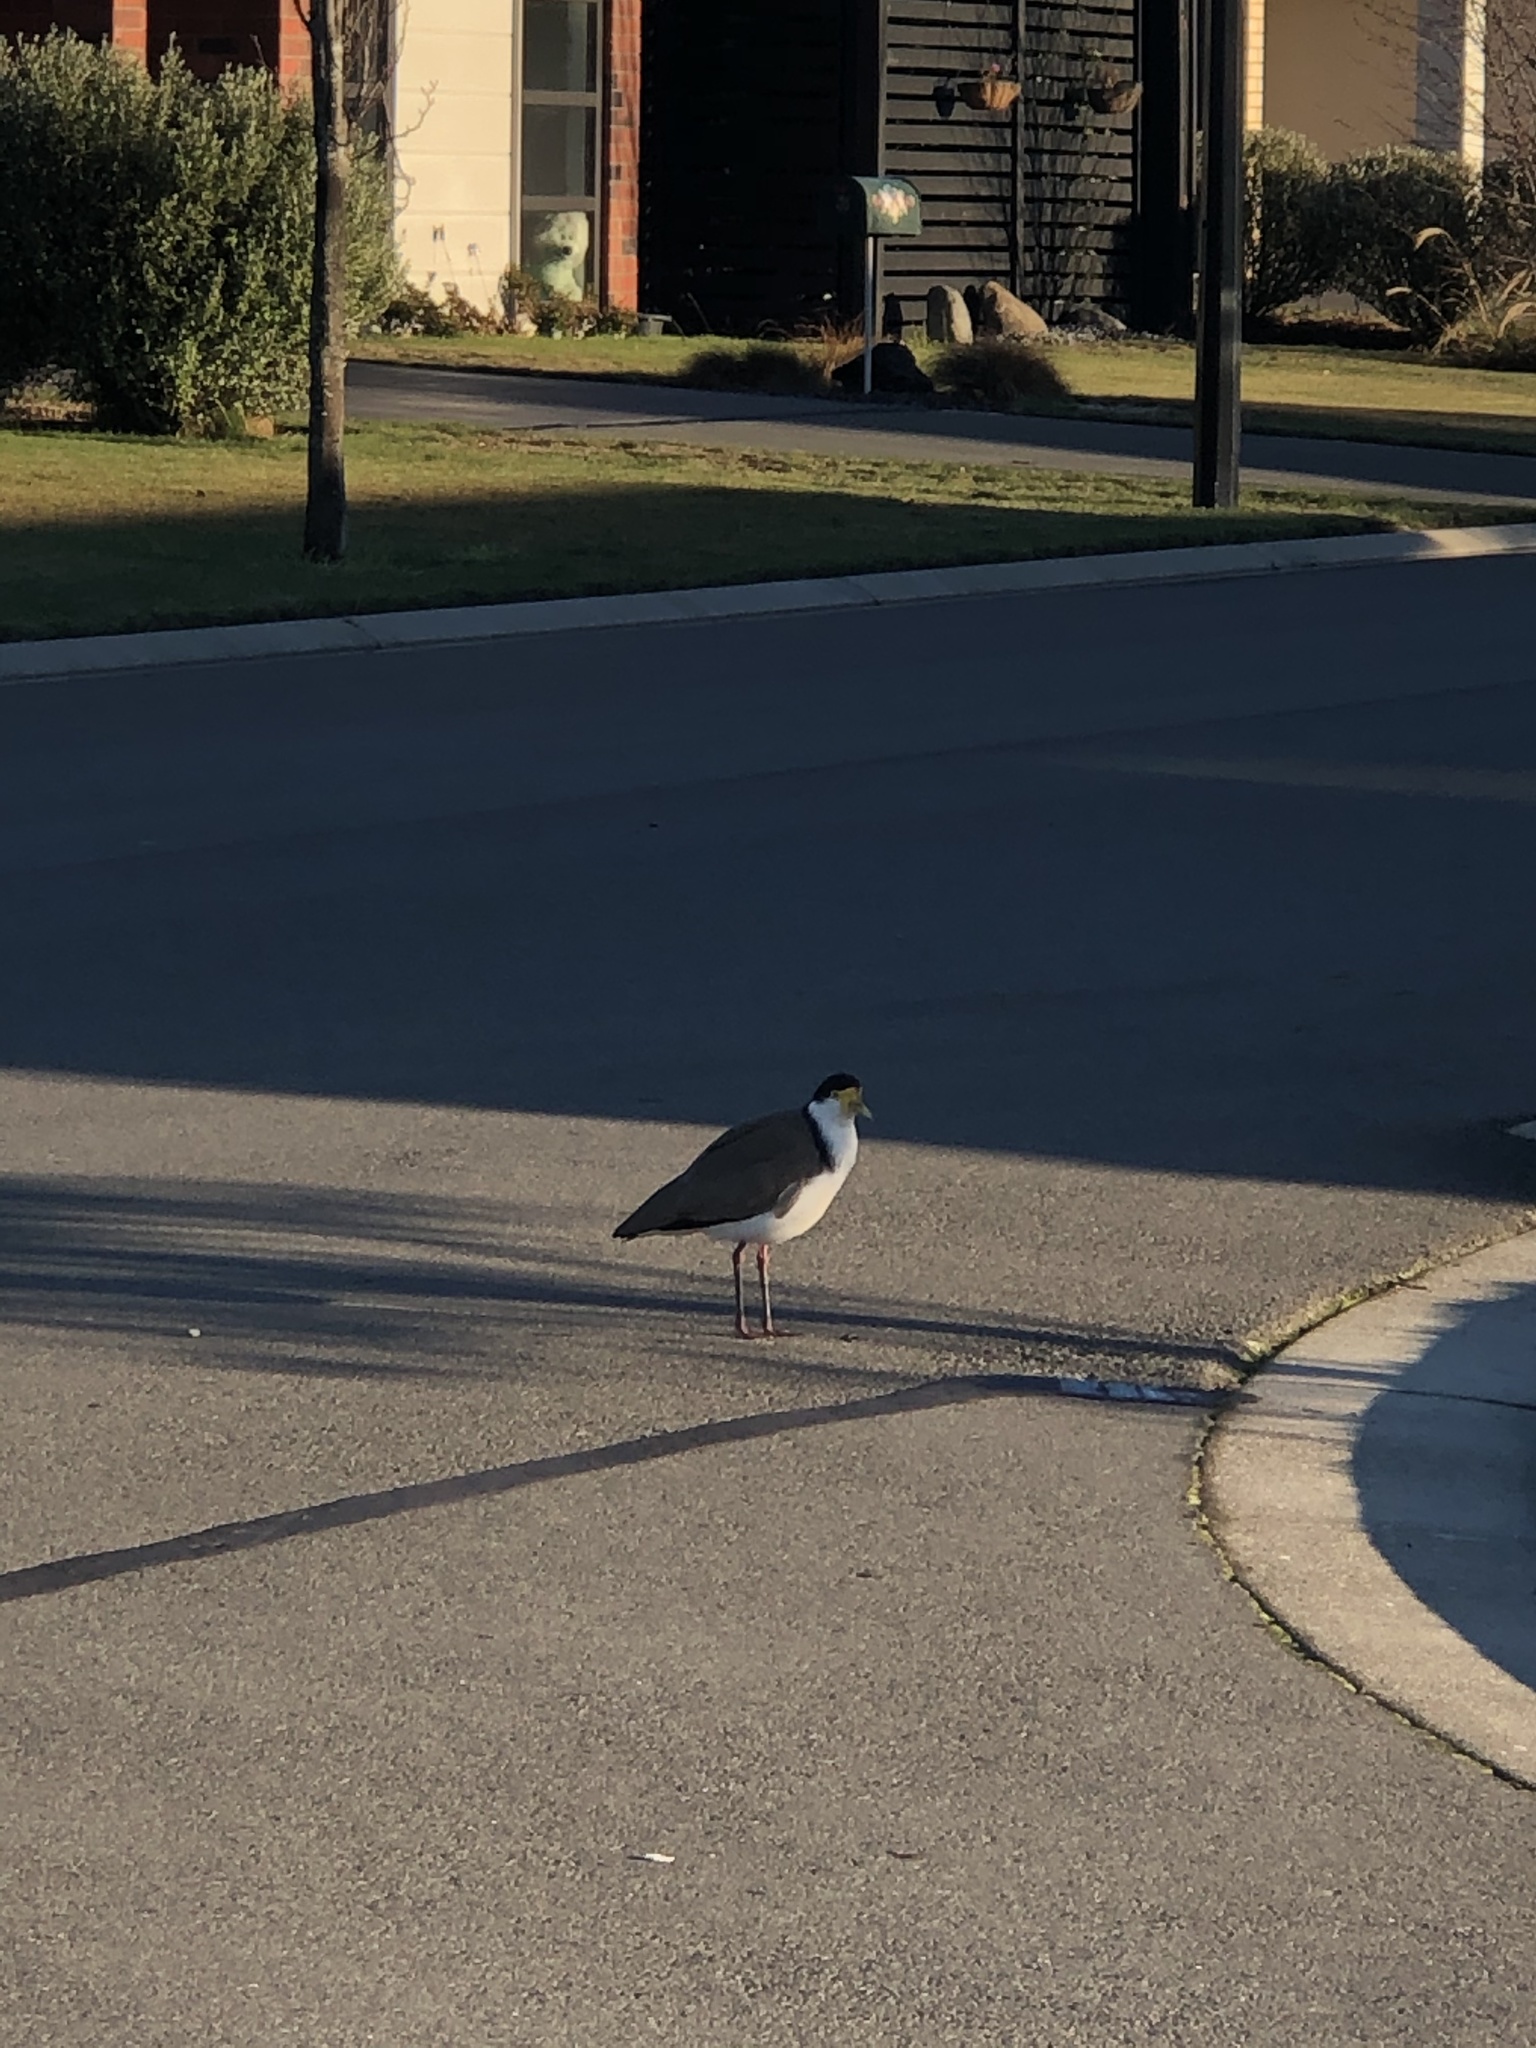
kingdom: Animalia
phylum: Chordata
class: Aves
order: Charadriiformes
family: Charadriidae
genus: Vanellus
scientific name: Vanellus miles
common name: Masked lapwing
